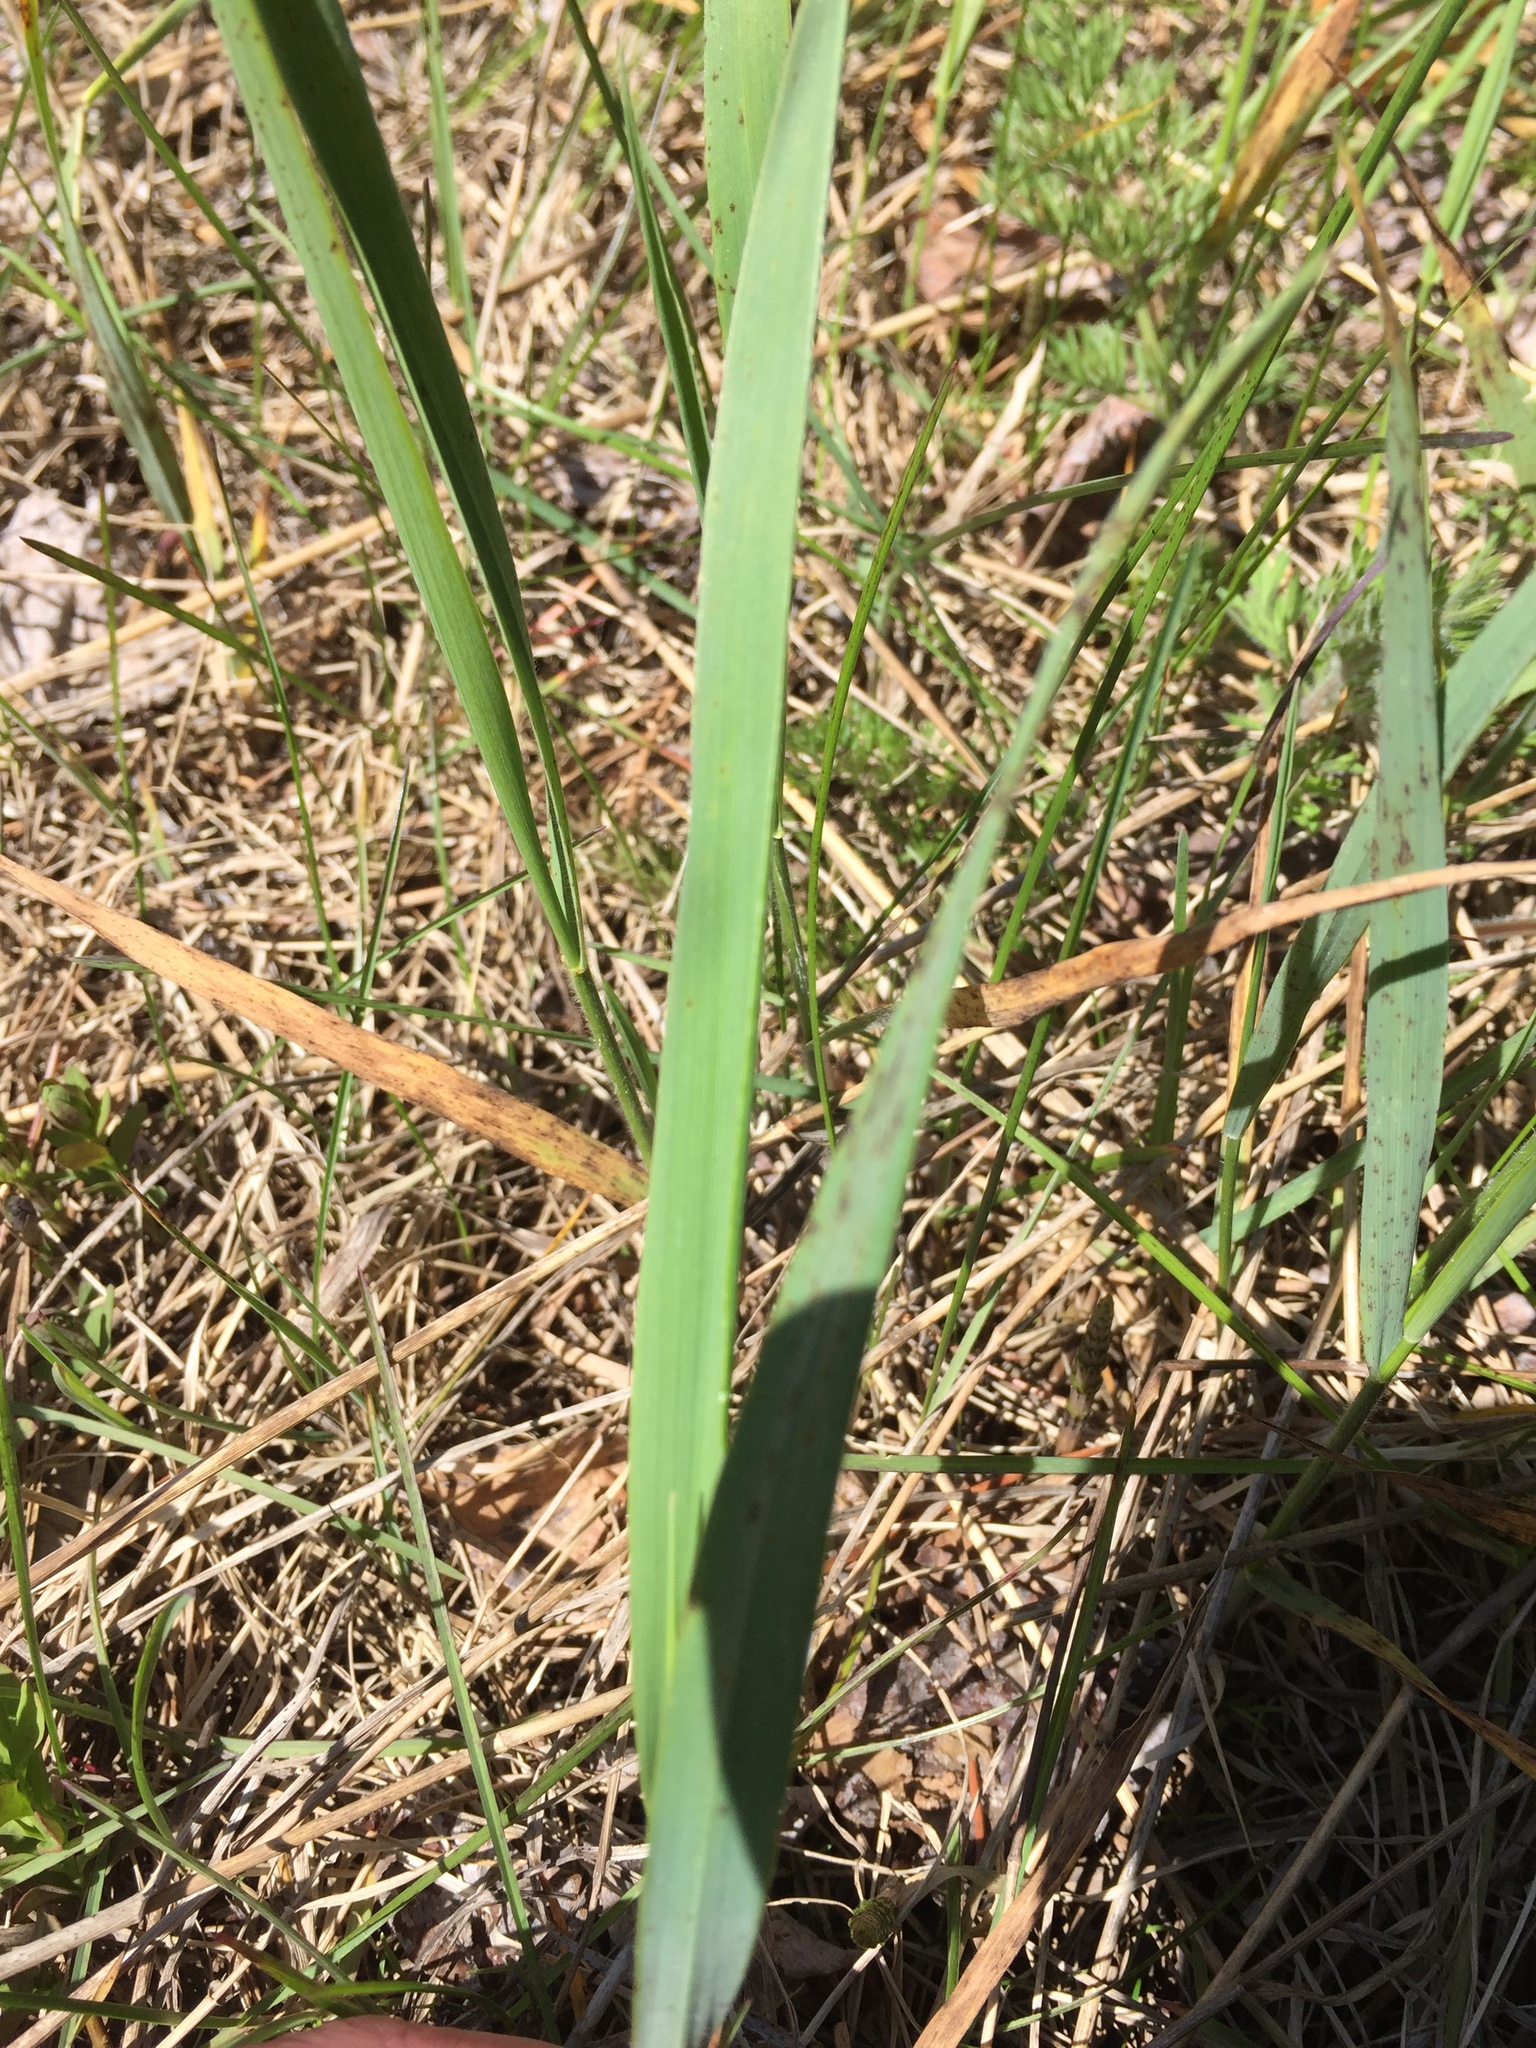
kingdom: Plantae
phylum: Tracheophyta
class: Liliopsida
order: Poales
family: Poaceae
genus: Bromus
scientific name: Bromus inermis
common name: Smooth brome
